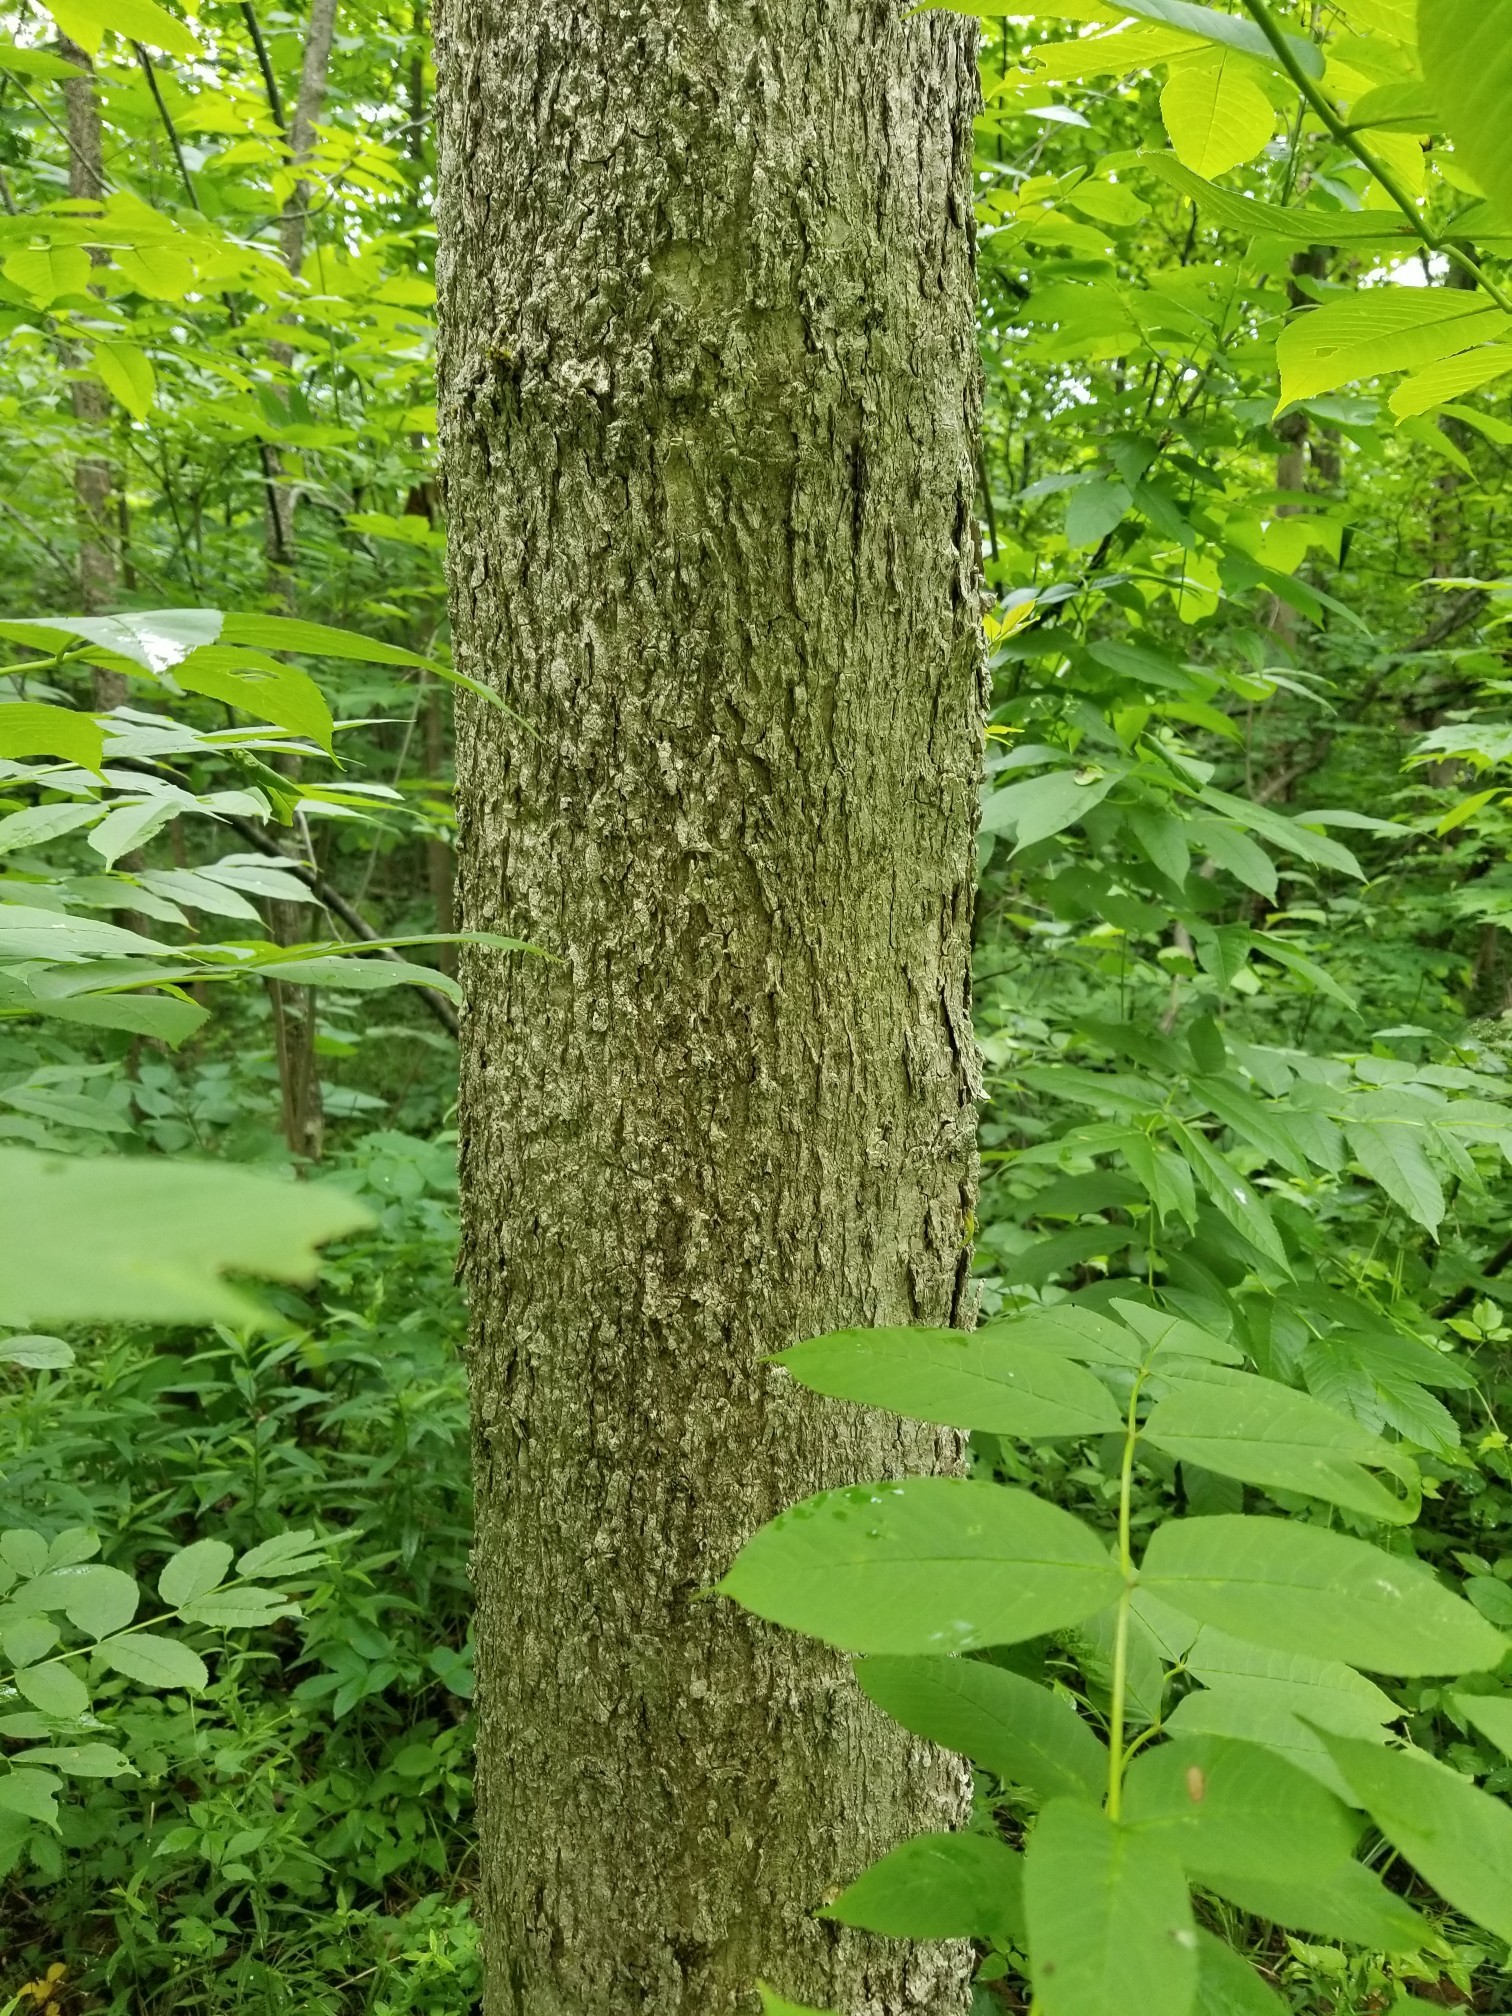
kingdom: Plantae
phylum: Tracheophyta
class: Magnoliopsida
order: Lamiales
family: Oleaceae
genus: Fraxinus
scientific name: Fraxinus nigra
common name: Black ash
